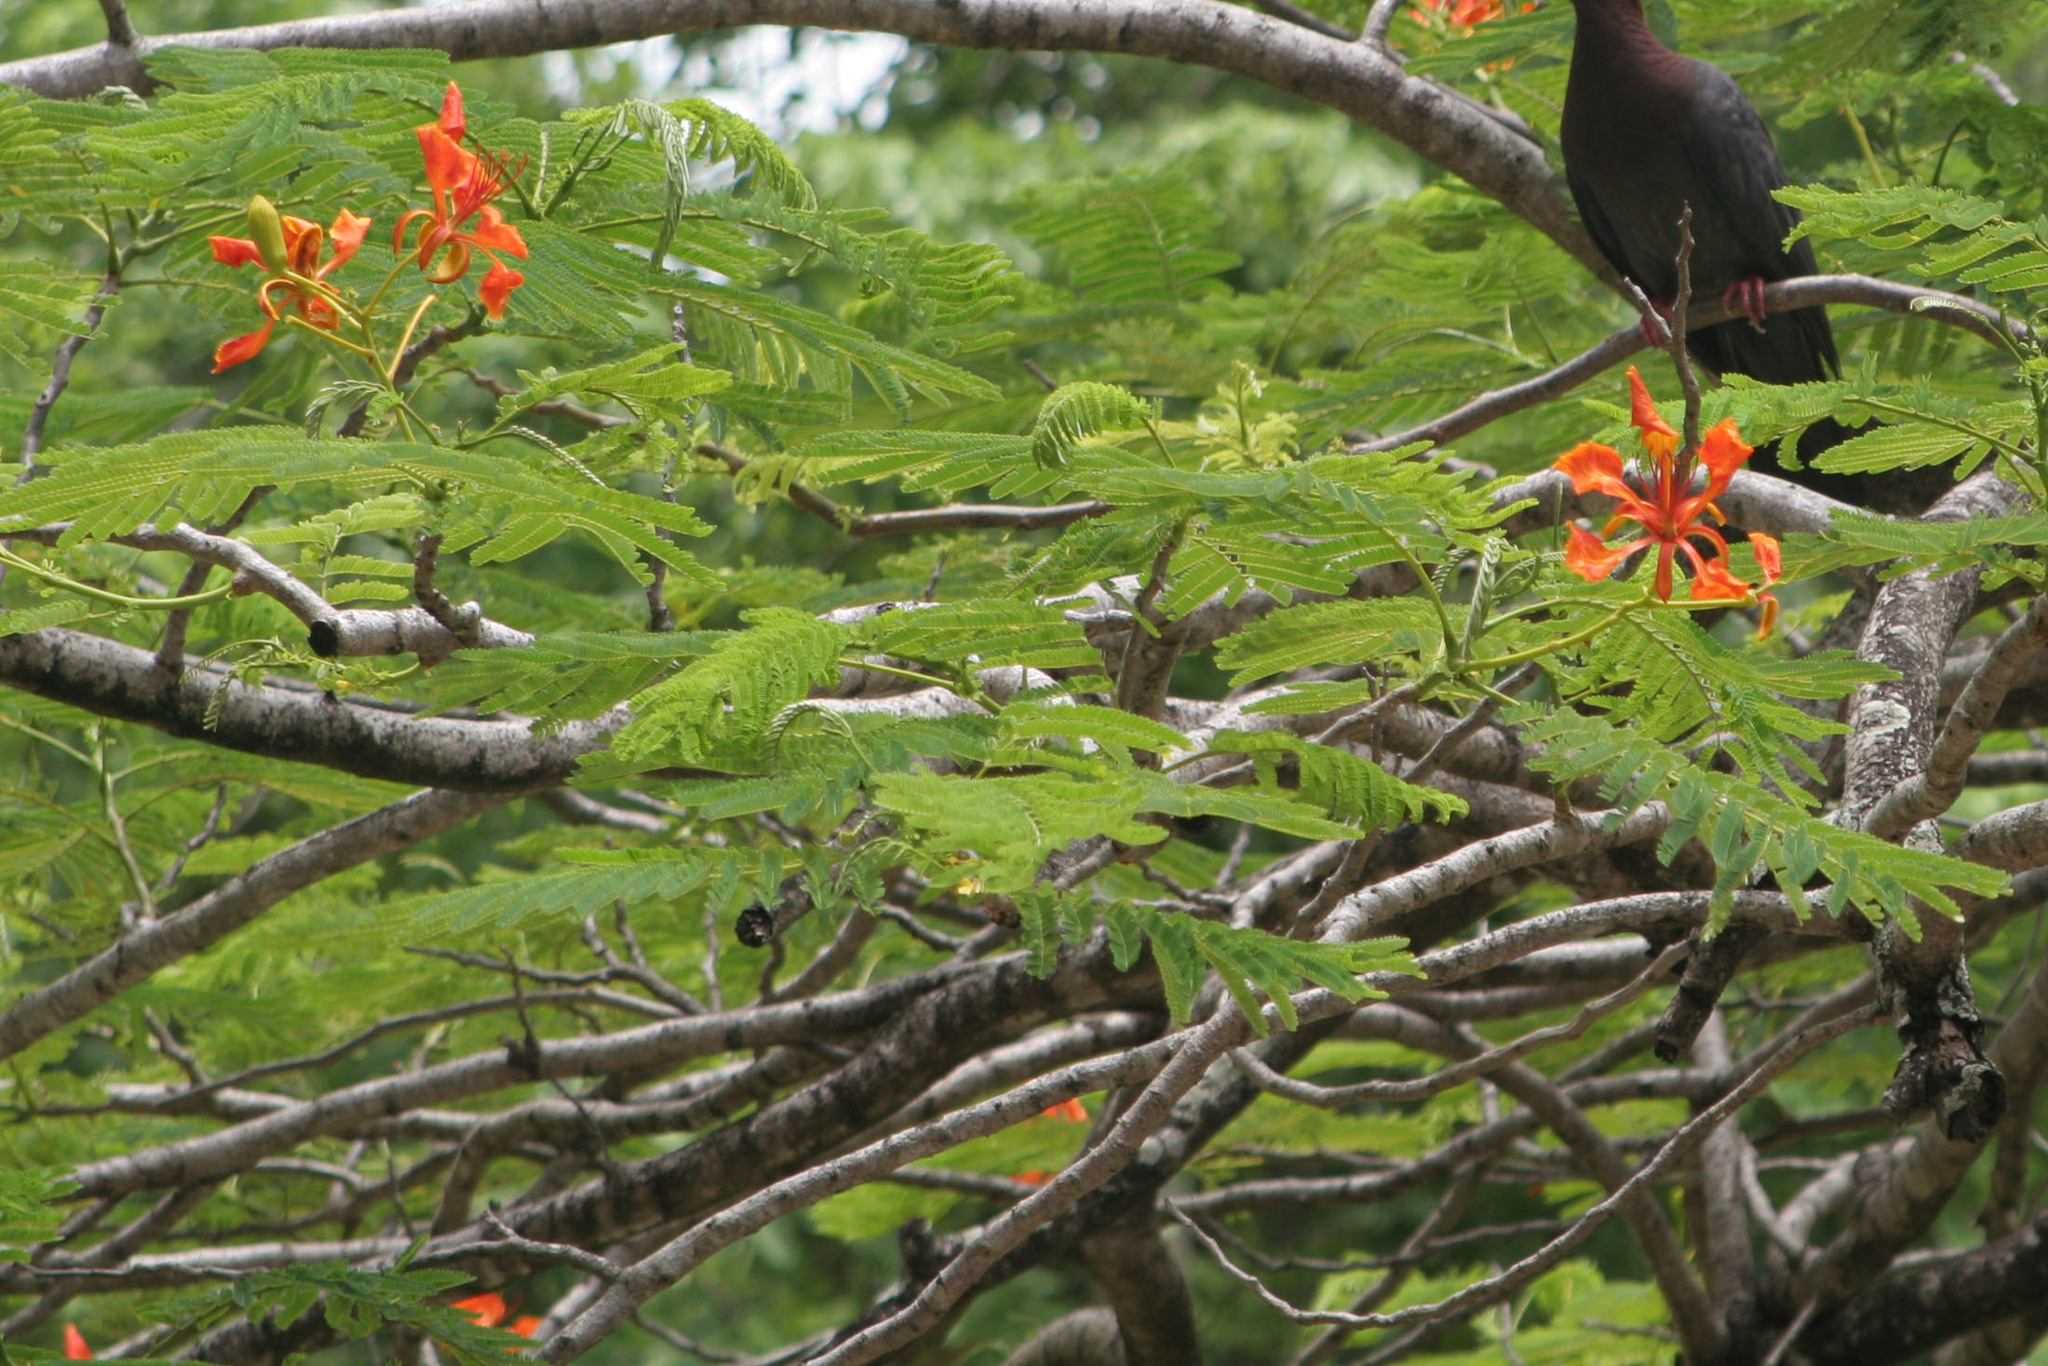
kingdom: Plantae
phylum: Tracheophyta
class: Magnoliopsida
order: Fabales
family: Fabaceae
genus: Delonix
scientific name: Delonix regia
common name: Royal poinciana
